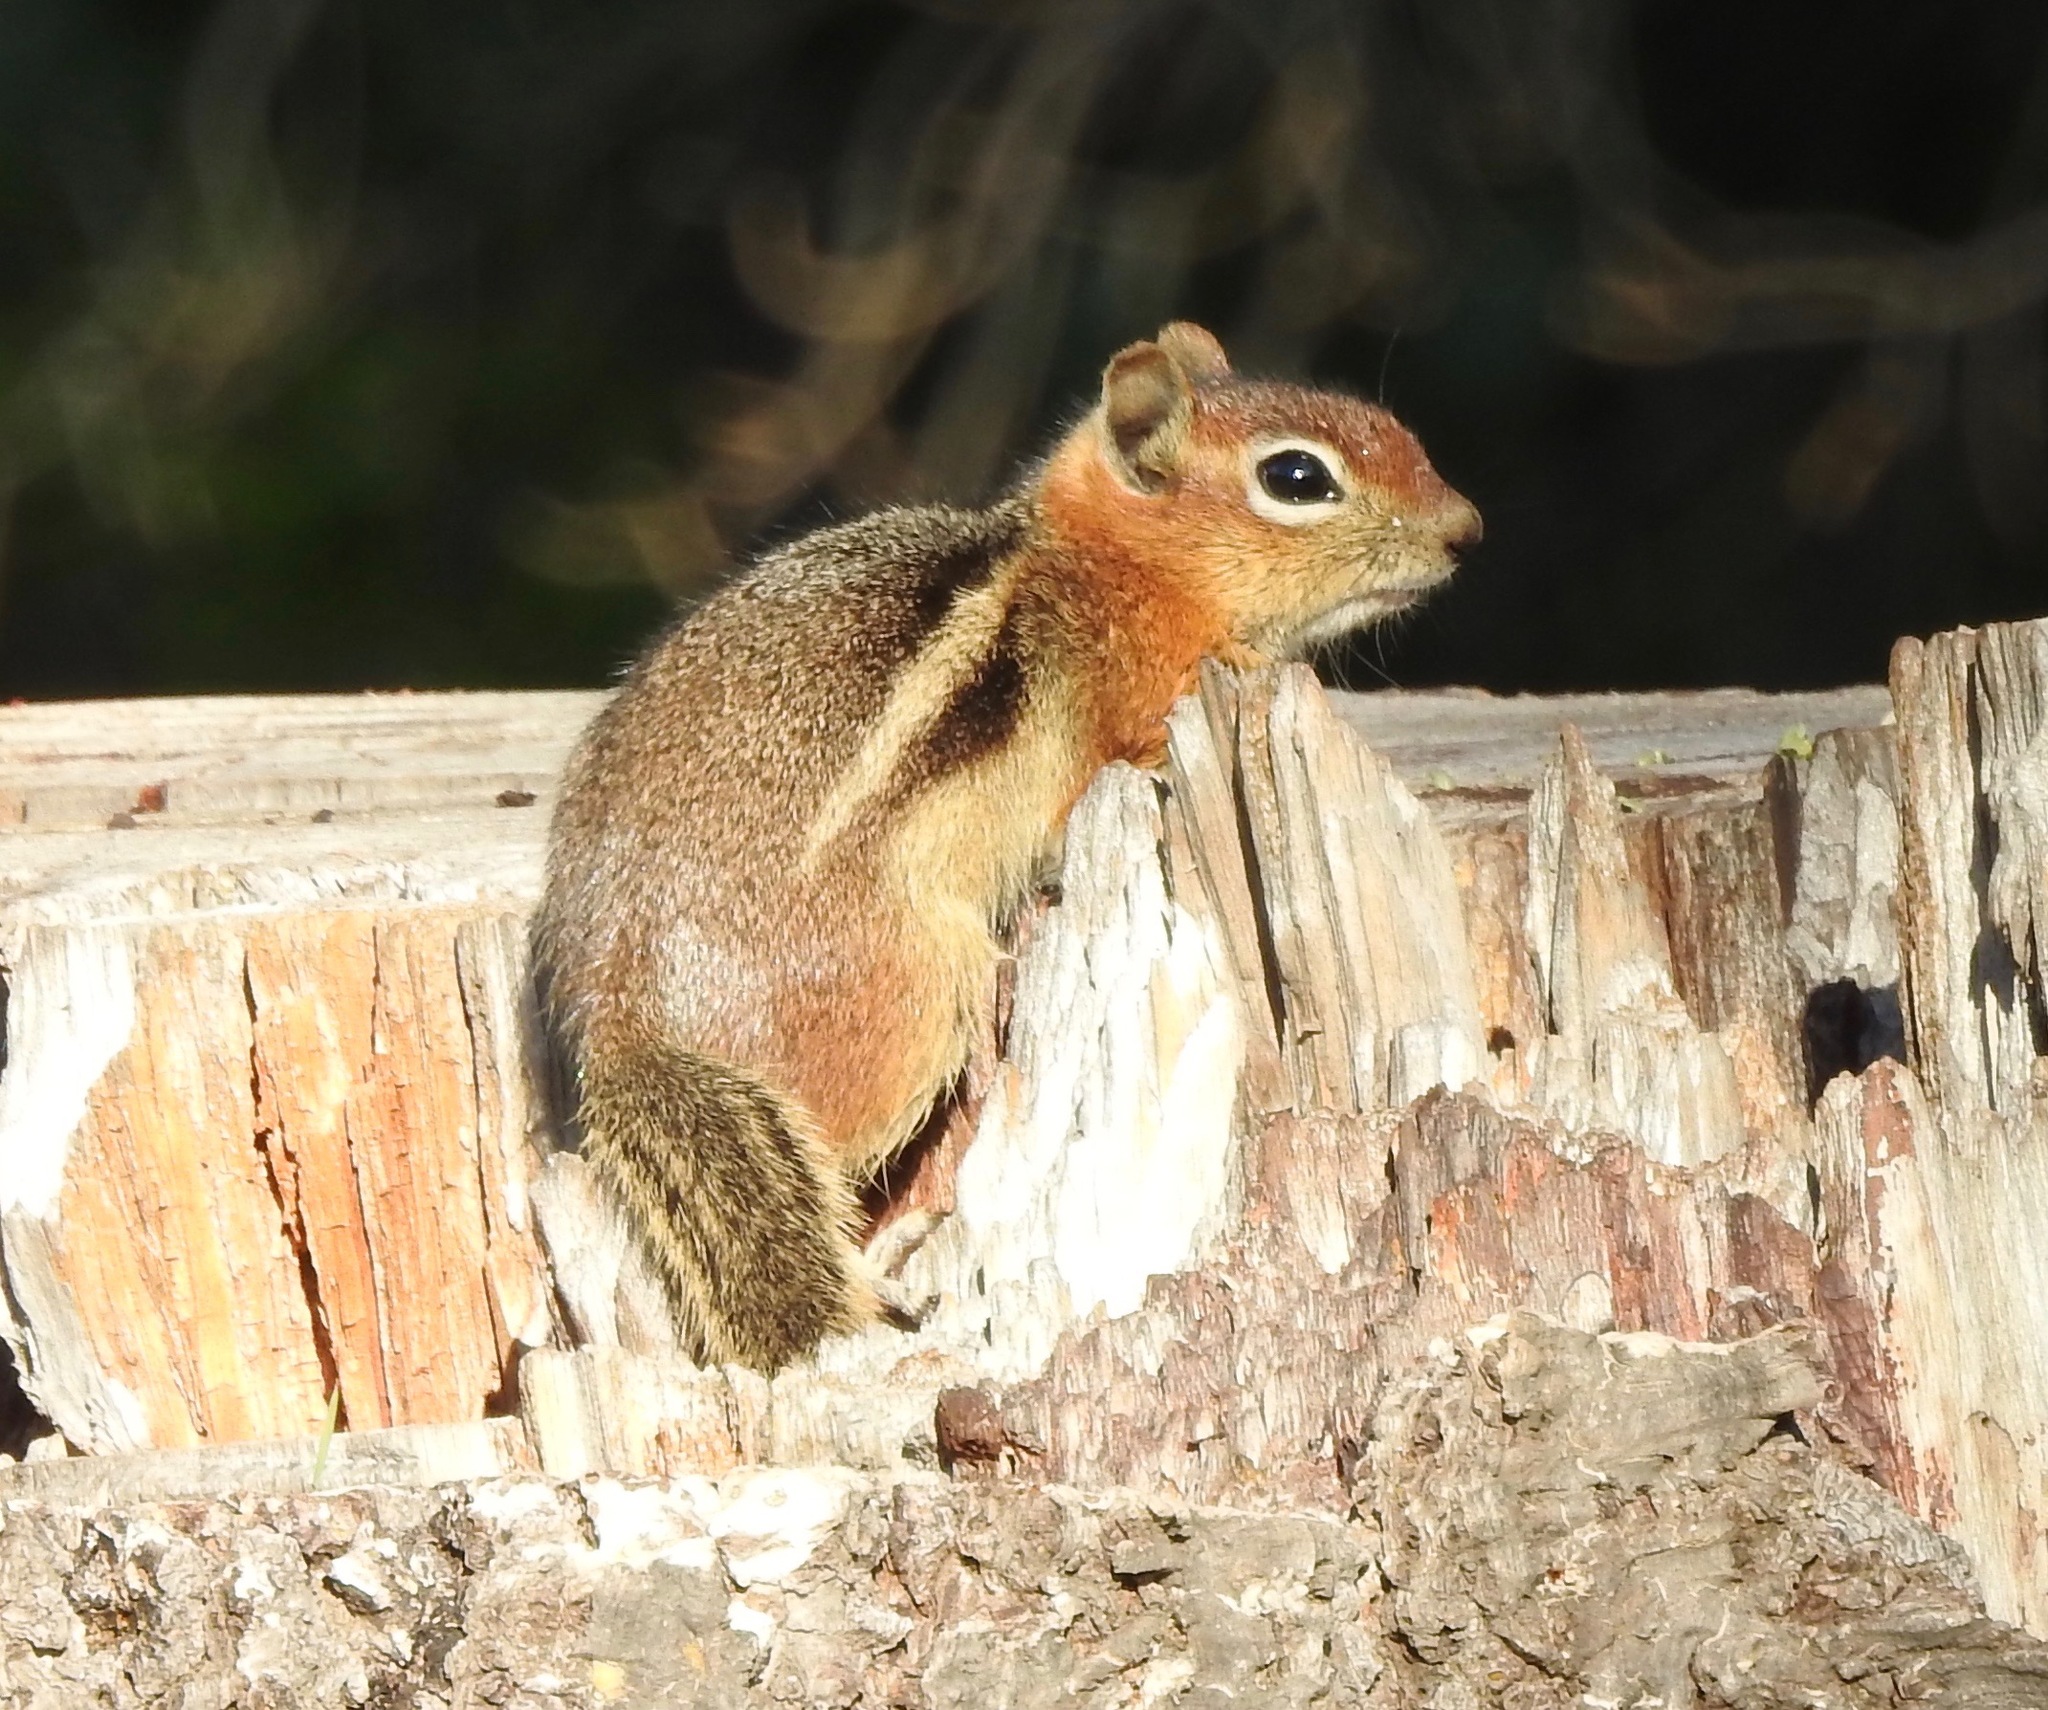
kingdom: Animalia
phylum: Chordata
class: Mammalia
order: Rodentia
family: Sciuridae
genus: Callospermophilus
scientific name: Callospermophilus lateralis
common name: Golden-mantled ground squirrel
